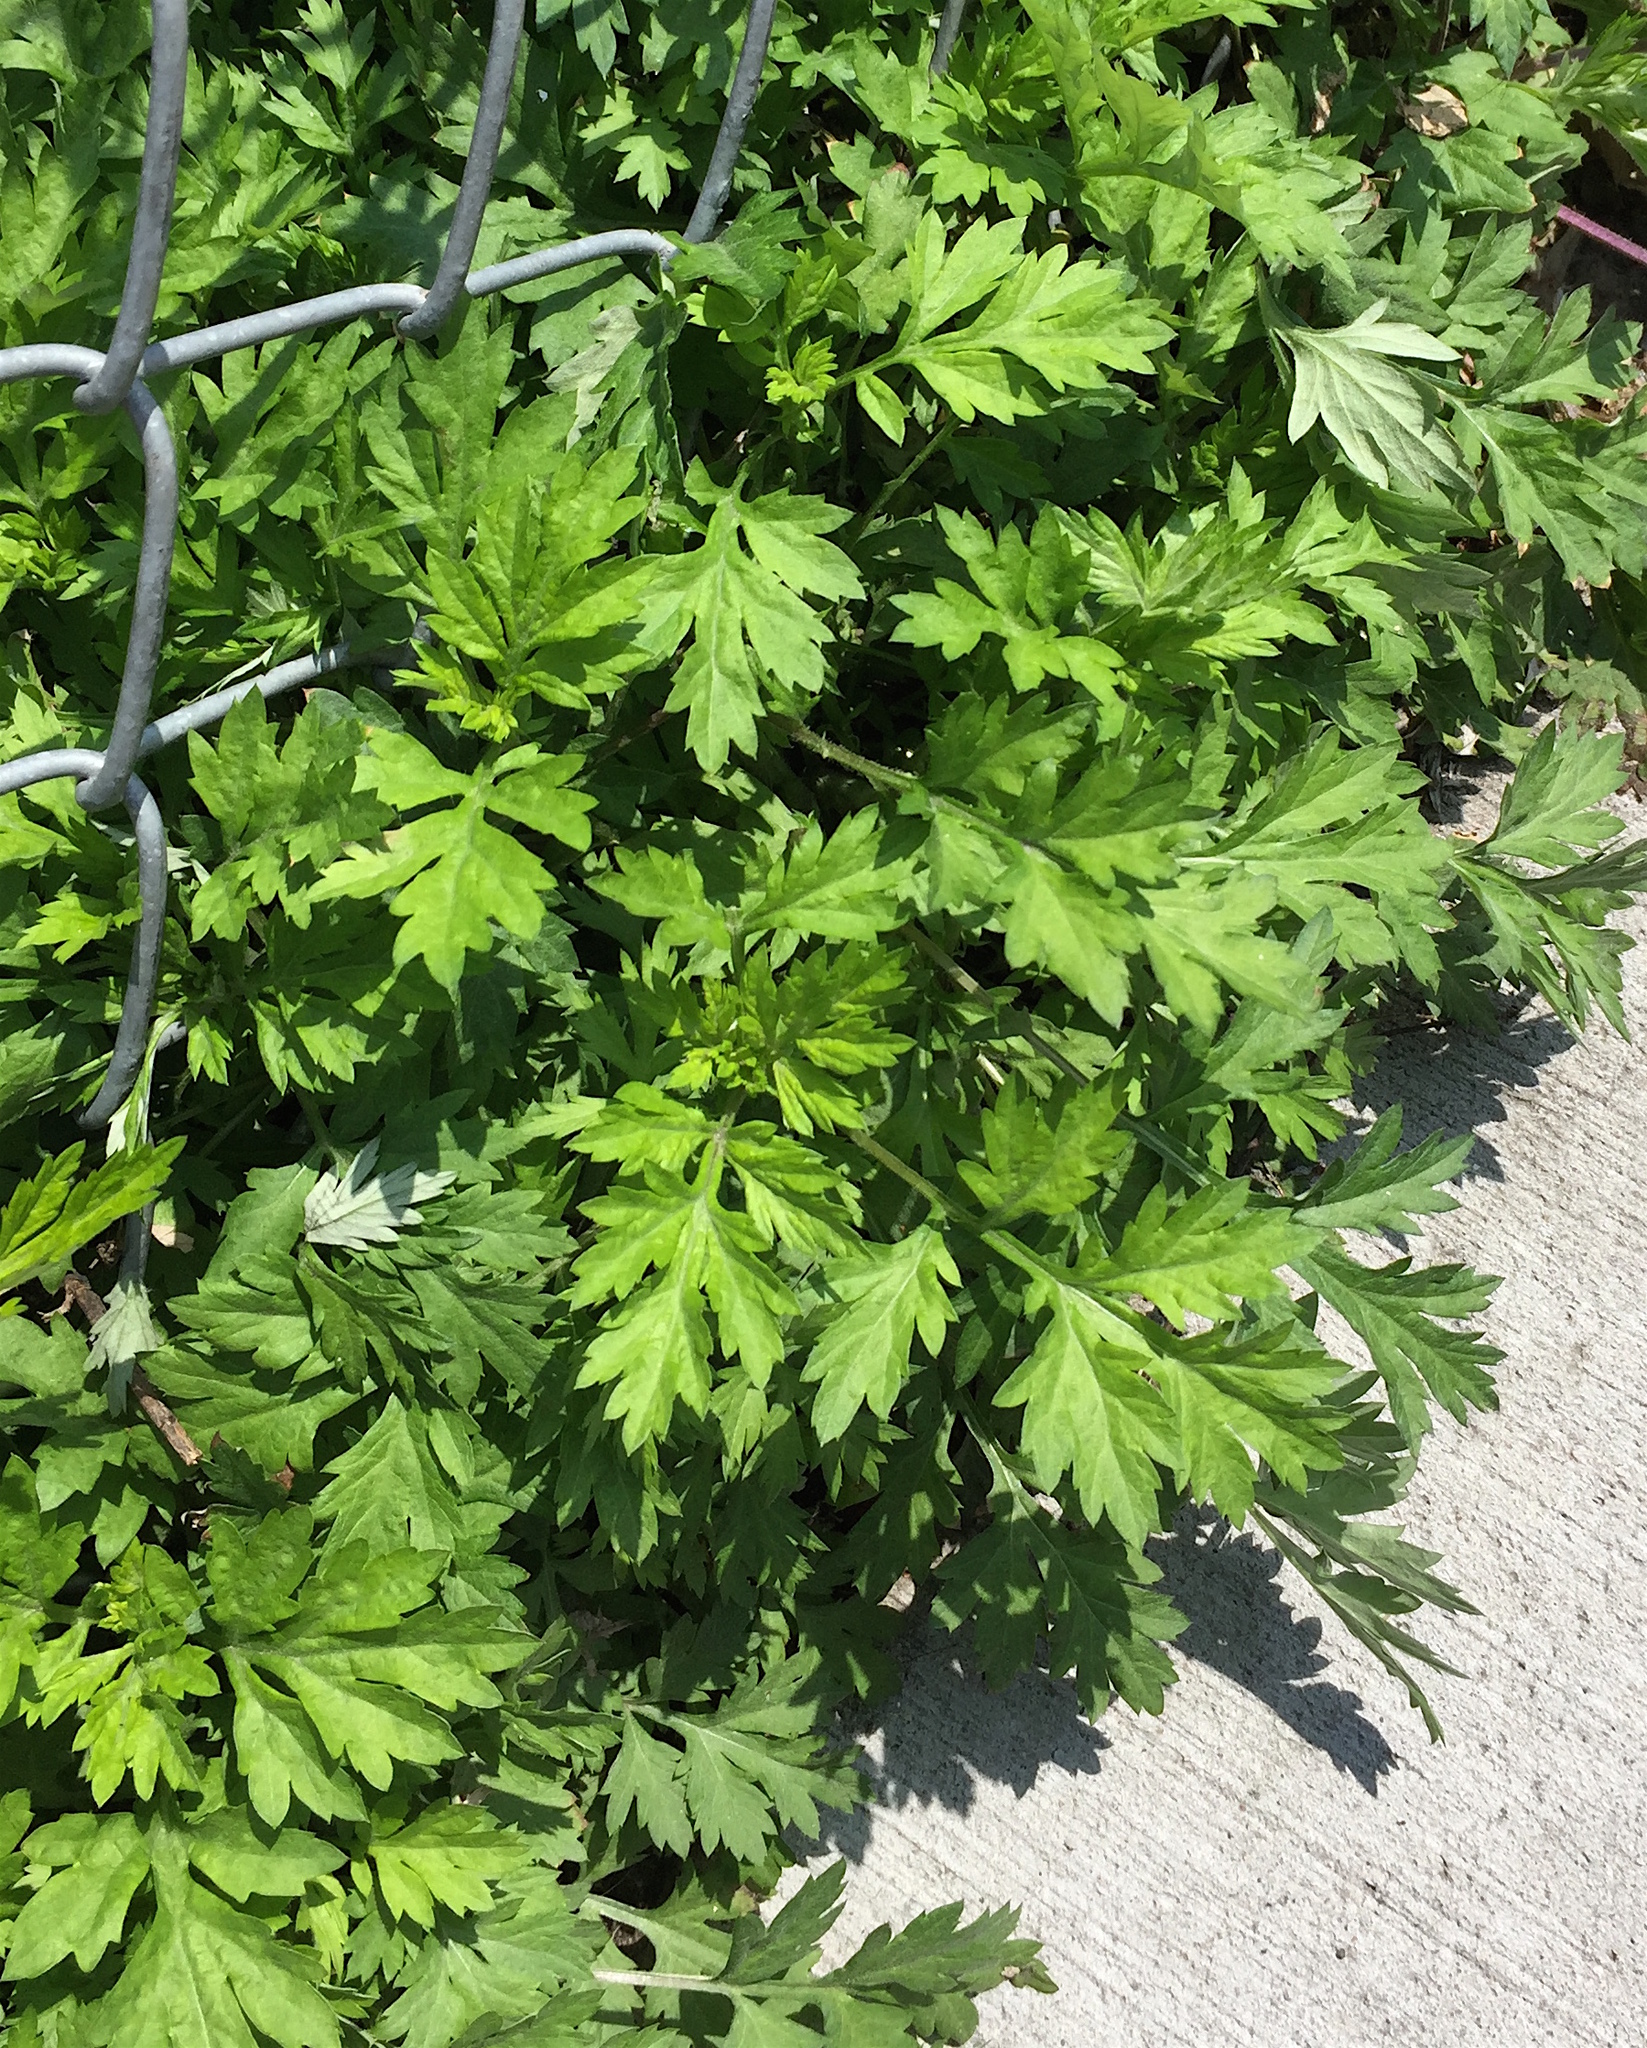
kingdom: Plantae
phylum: Tracheophyta
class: Magnoliopsida
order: Asterales
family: Asteraceae
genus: Artemisia
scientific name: Artemisia vulgaris
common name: Mugwort
